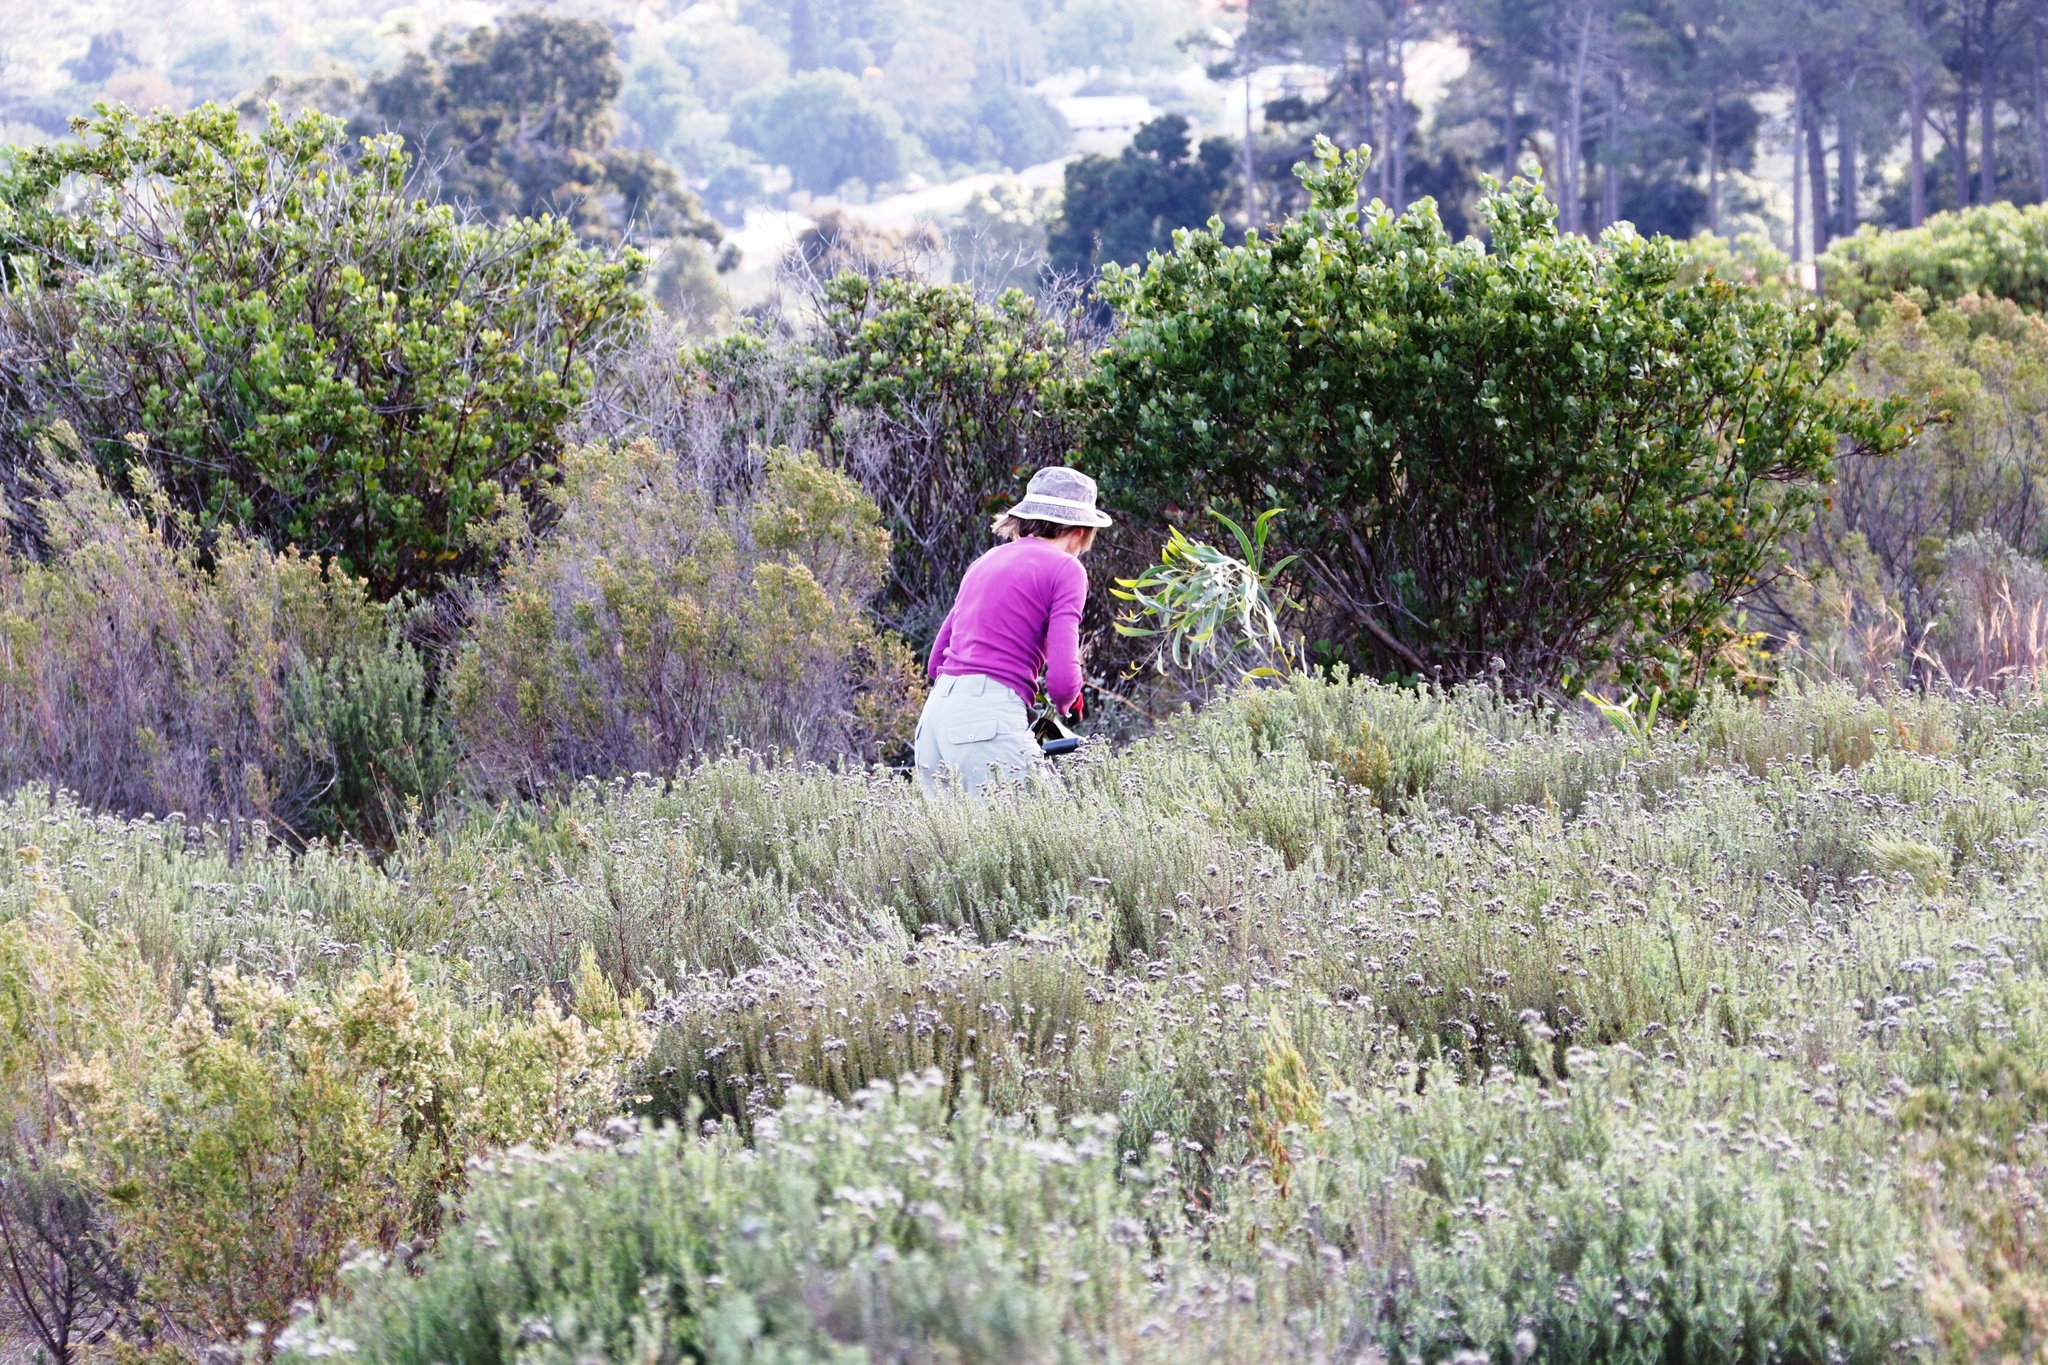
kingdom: Plantae
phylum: Tracheophyta
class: Magnoliopsida
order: Asterales
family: Asteraceae
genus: Osteospermum
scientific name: Osteospermum moniliferum
